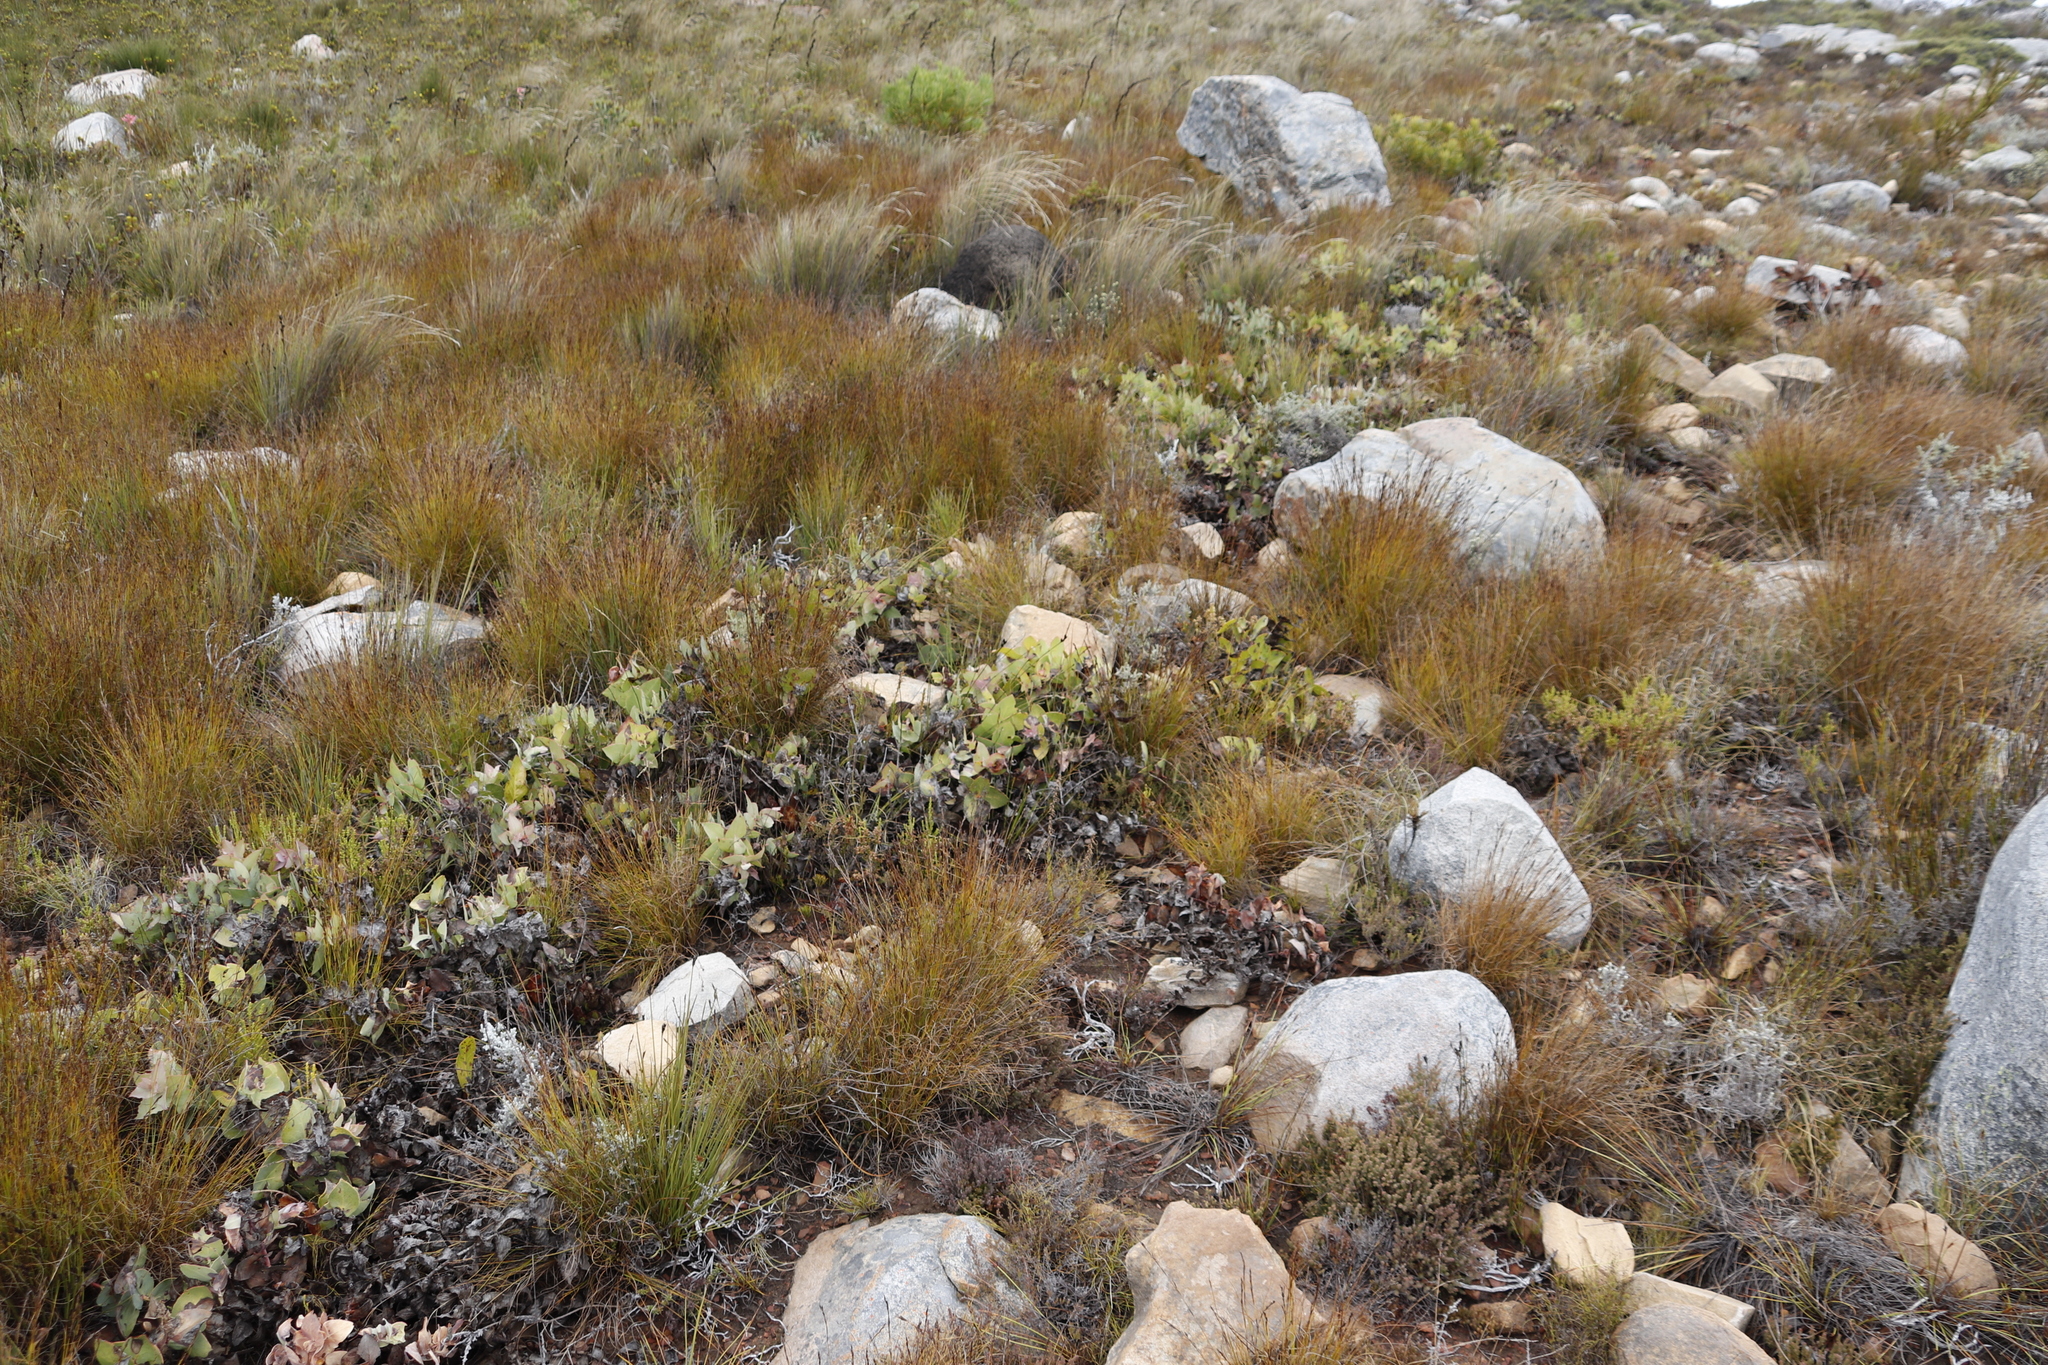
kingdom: Plantae
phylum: Tracheophyta
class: Magnoliopsida
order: Proteales
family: Proteaceae
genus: Protea
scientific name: Protea amplexicaulis
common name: Clasping-leaf sugarbush
